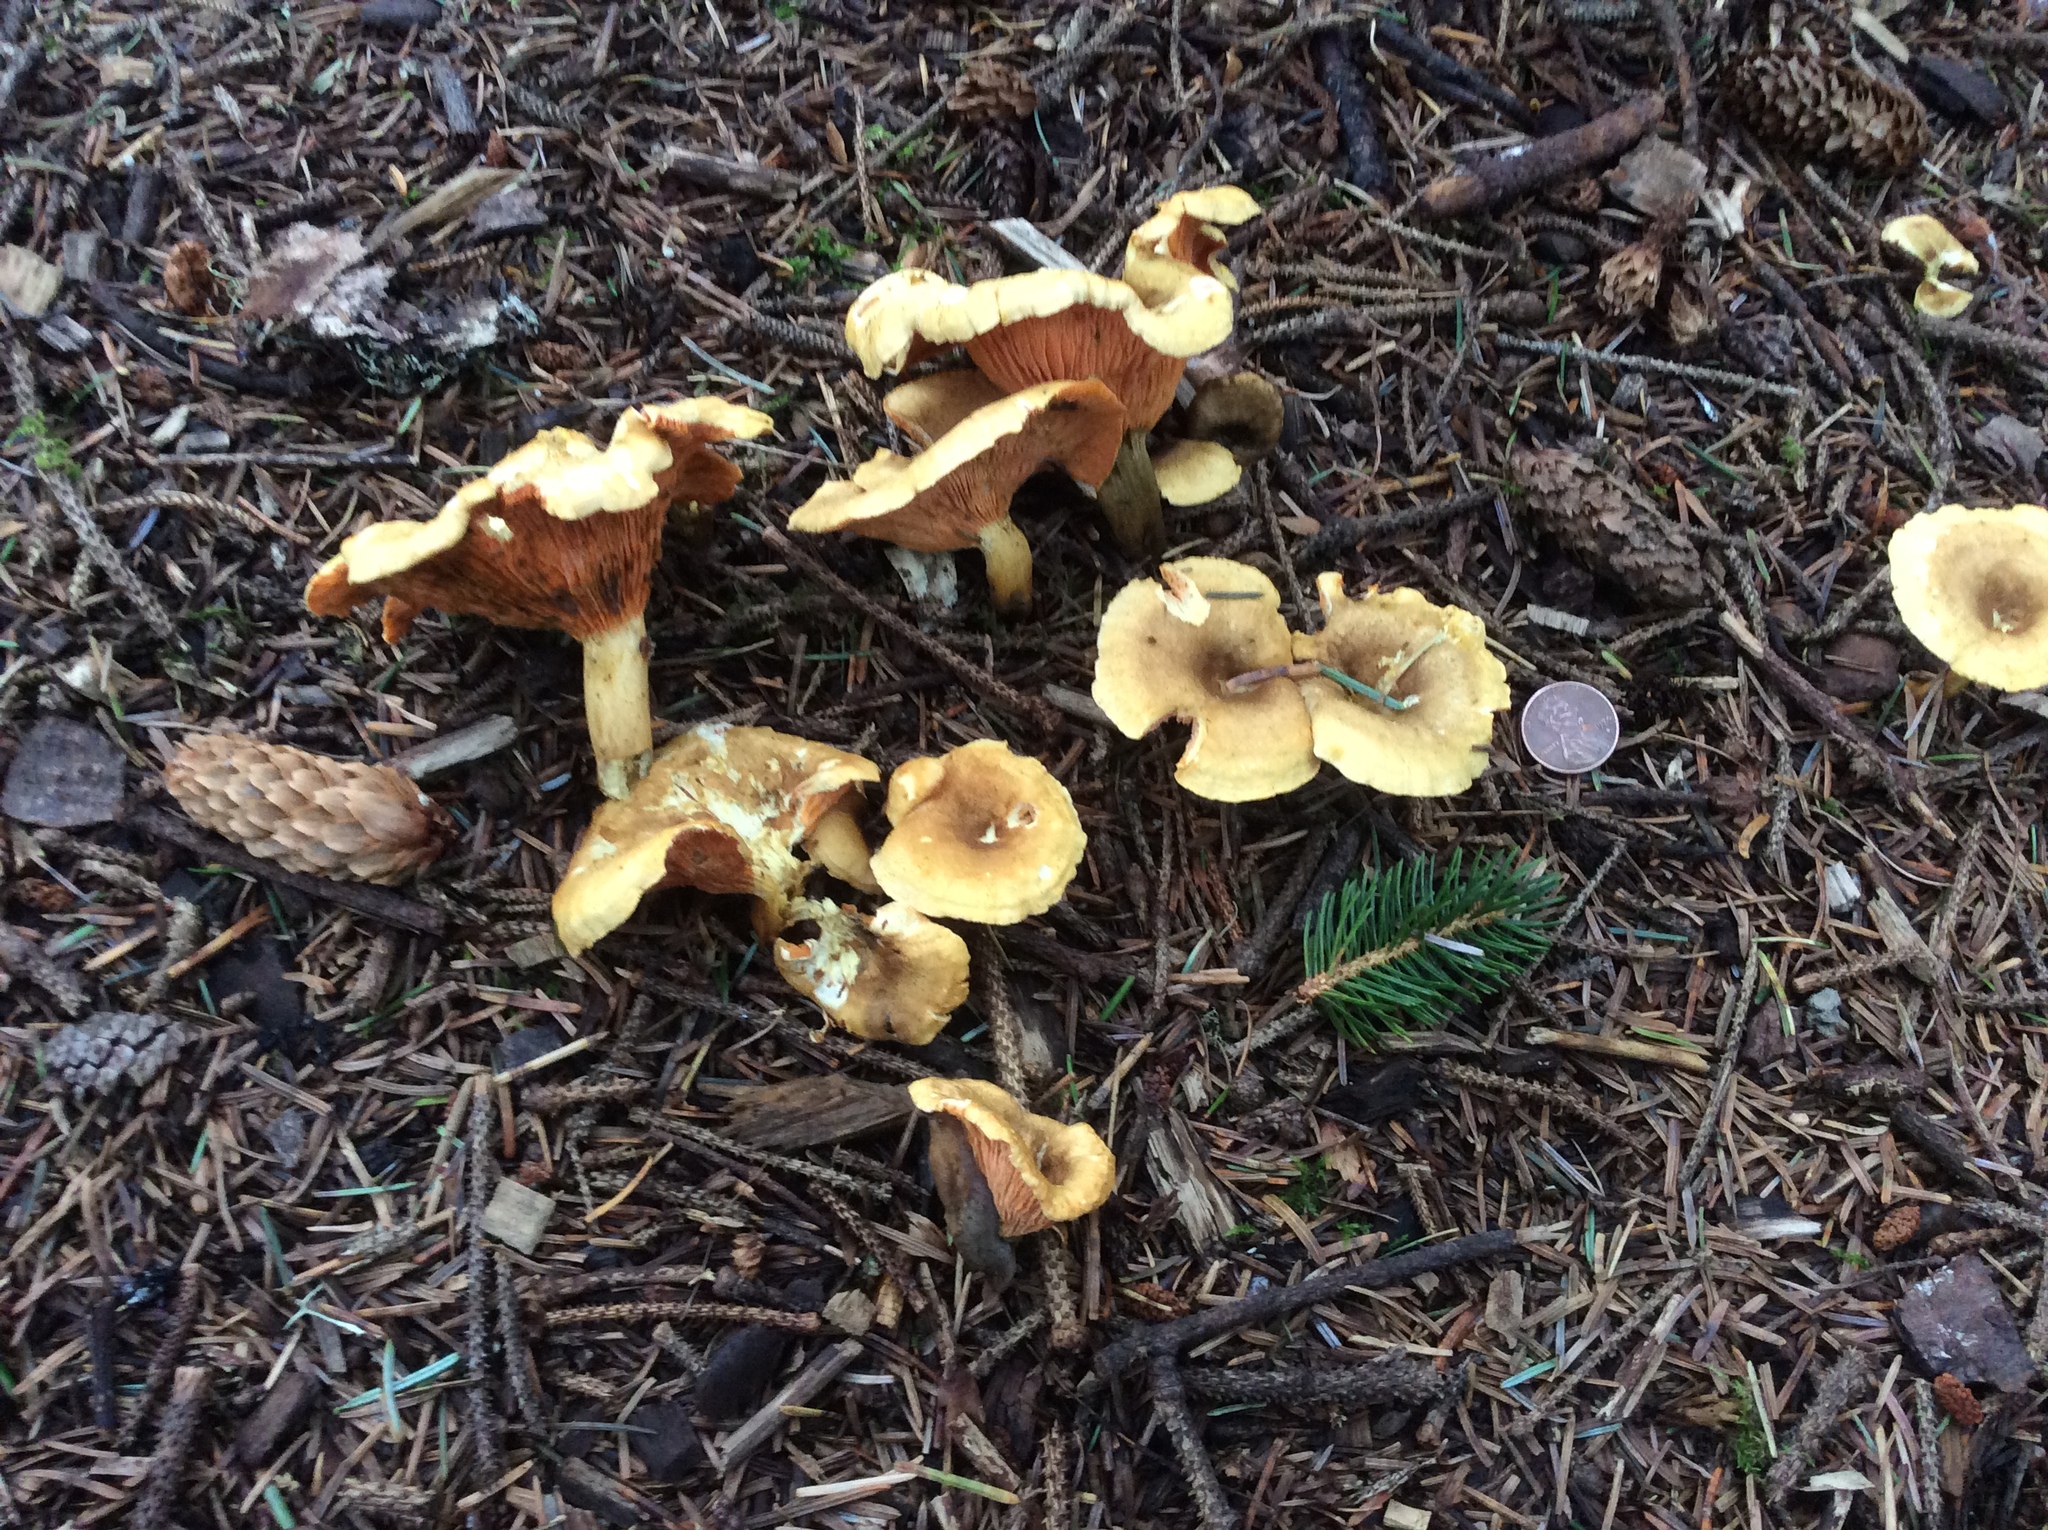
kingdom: Fungi
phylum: Basidiomycota
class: Agaricomycetes
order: Boletales
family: Hygrophoropsidaceae
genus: Hygrophoropsis
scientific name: Hygrophoropsis aurantiaca
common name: False chanterelle
